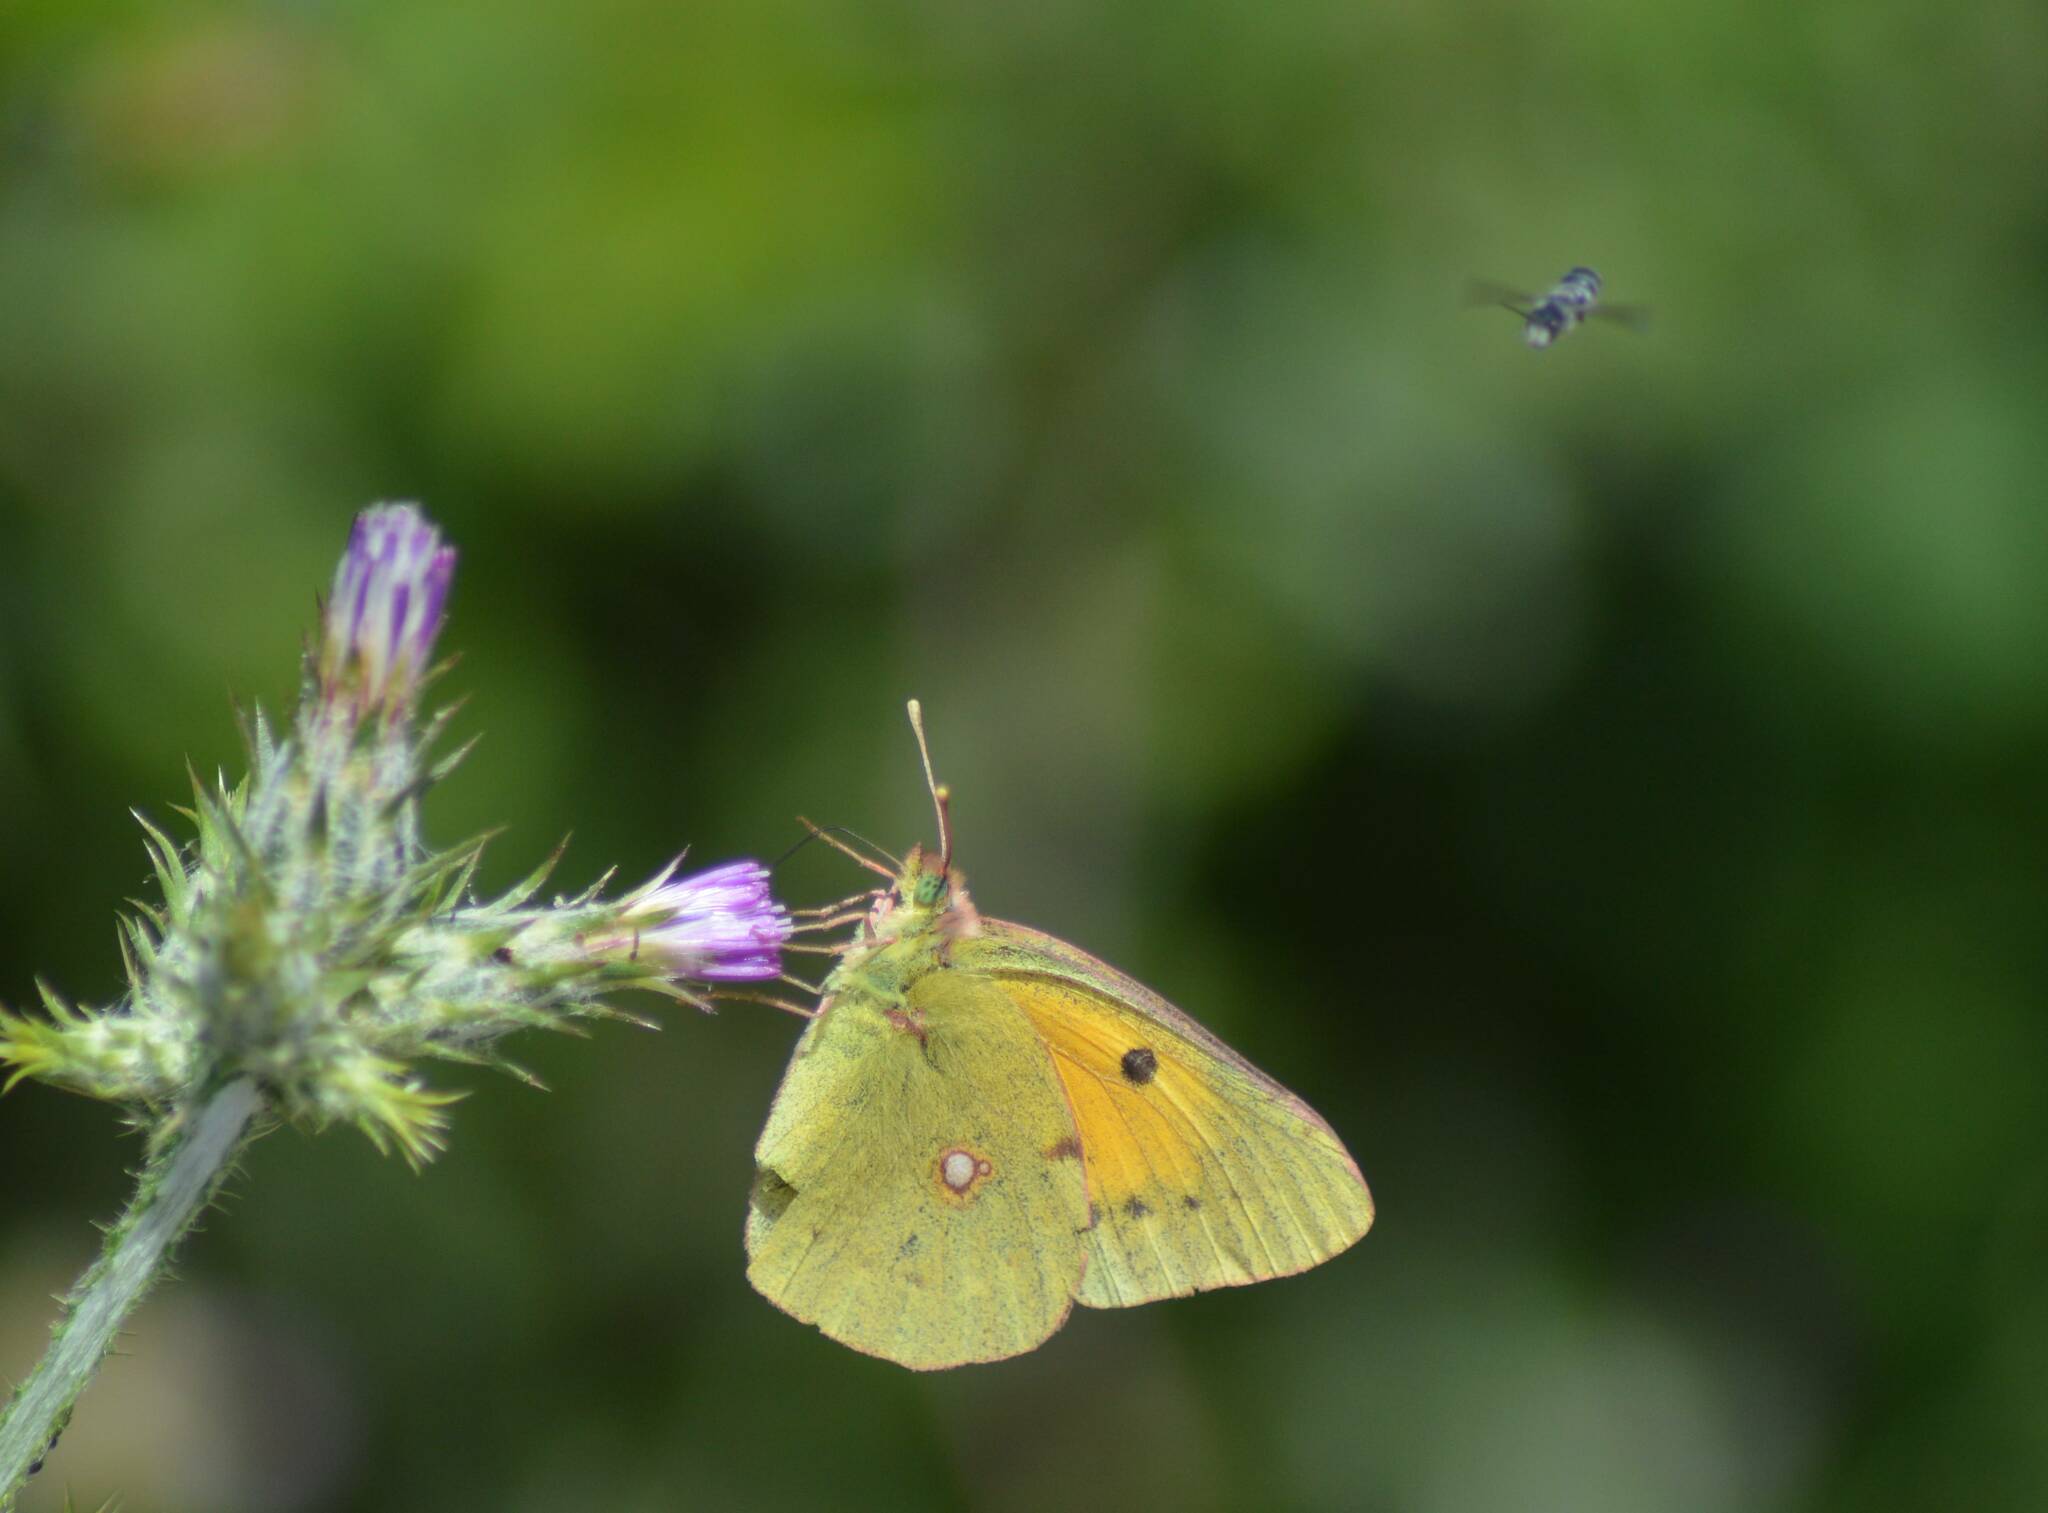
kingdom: Animalia
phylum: Arthropoda
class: Insecta
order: Lepidoptera
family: Pieridae
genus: Colias
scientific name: Colias croceus
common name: Clouded yellow
